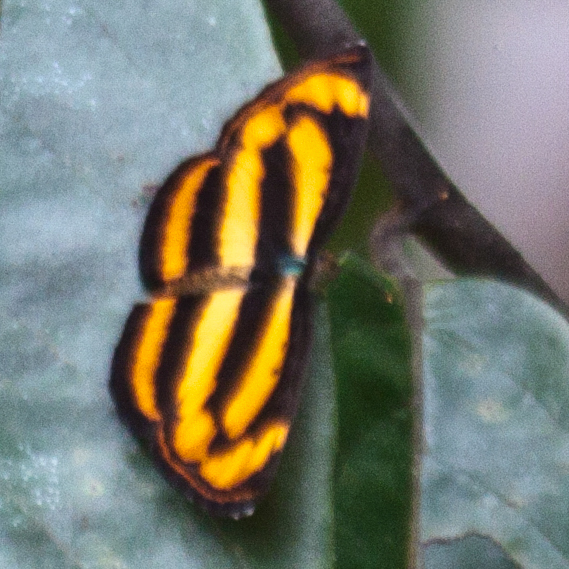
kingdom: Animalia
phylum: Arthropoda
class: Insecta
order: Lepidoptera
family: Nymphalidae
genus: Pantoporia
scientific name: Pantoporia hordonia
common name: Common lascar
